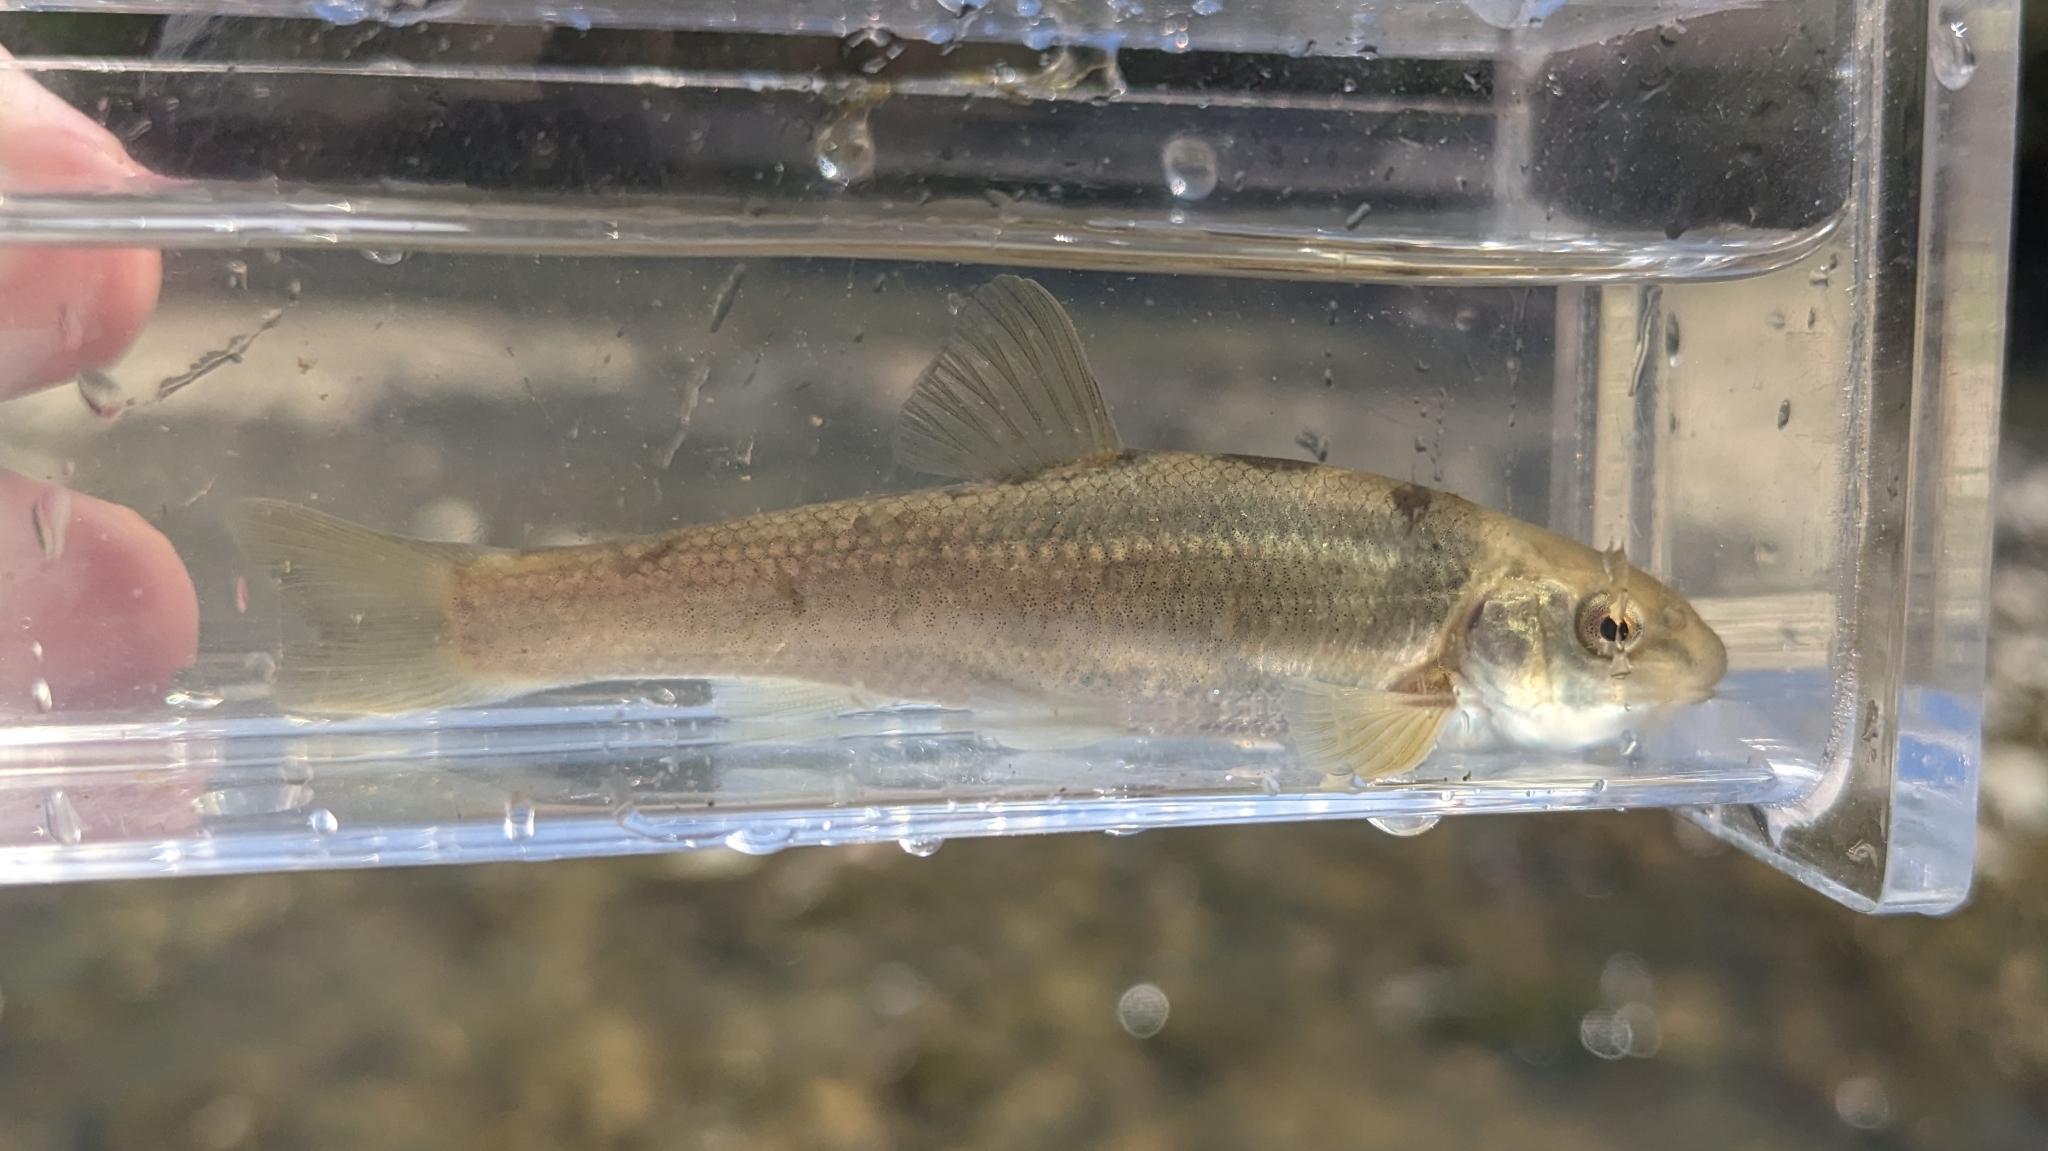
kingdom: Animalia
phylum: Chordata
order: Cypriniformes
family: Cyprinidae
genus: Campostoma
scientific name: Campostoma anomalum
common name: Central stoneroller
